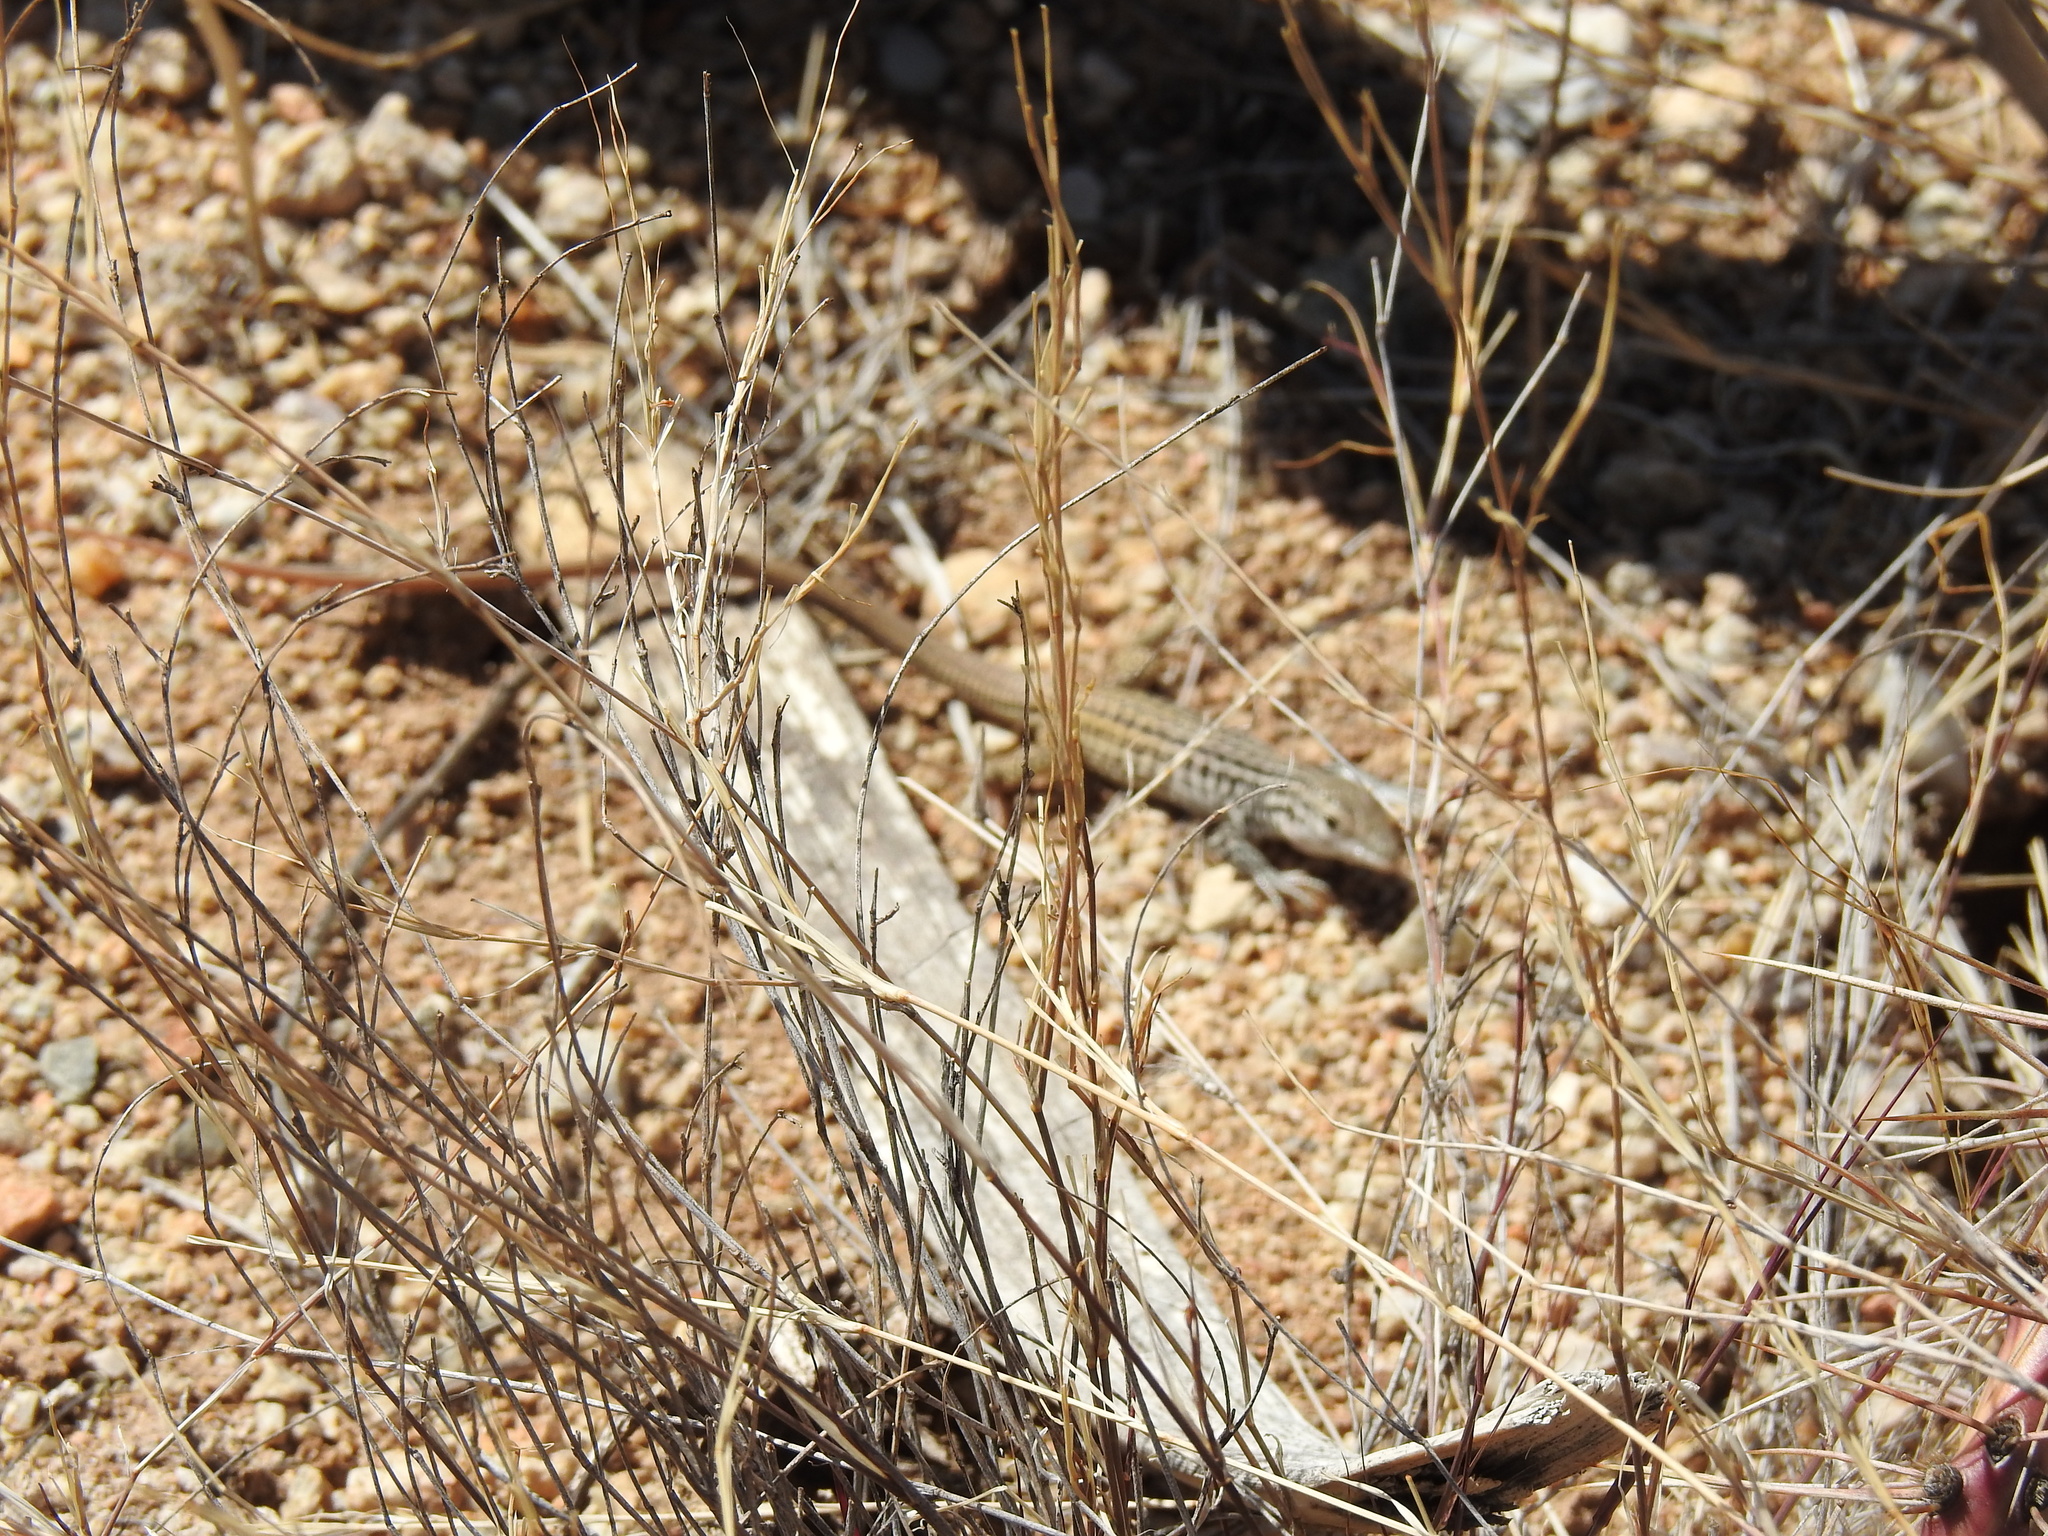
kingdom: Animalia
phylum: Chordata
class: Squamata
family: Teiidae
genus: Aspidoscelis
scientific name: Aspidoscelis tesselatus
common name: Common checkered whiptail [tesselata]
